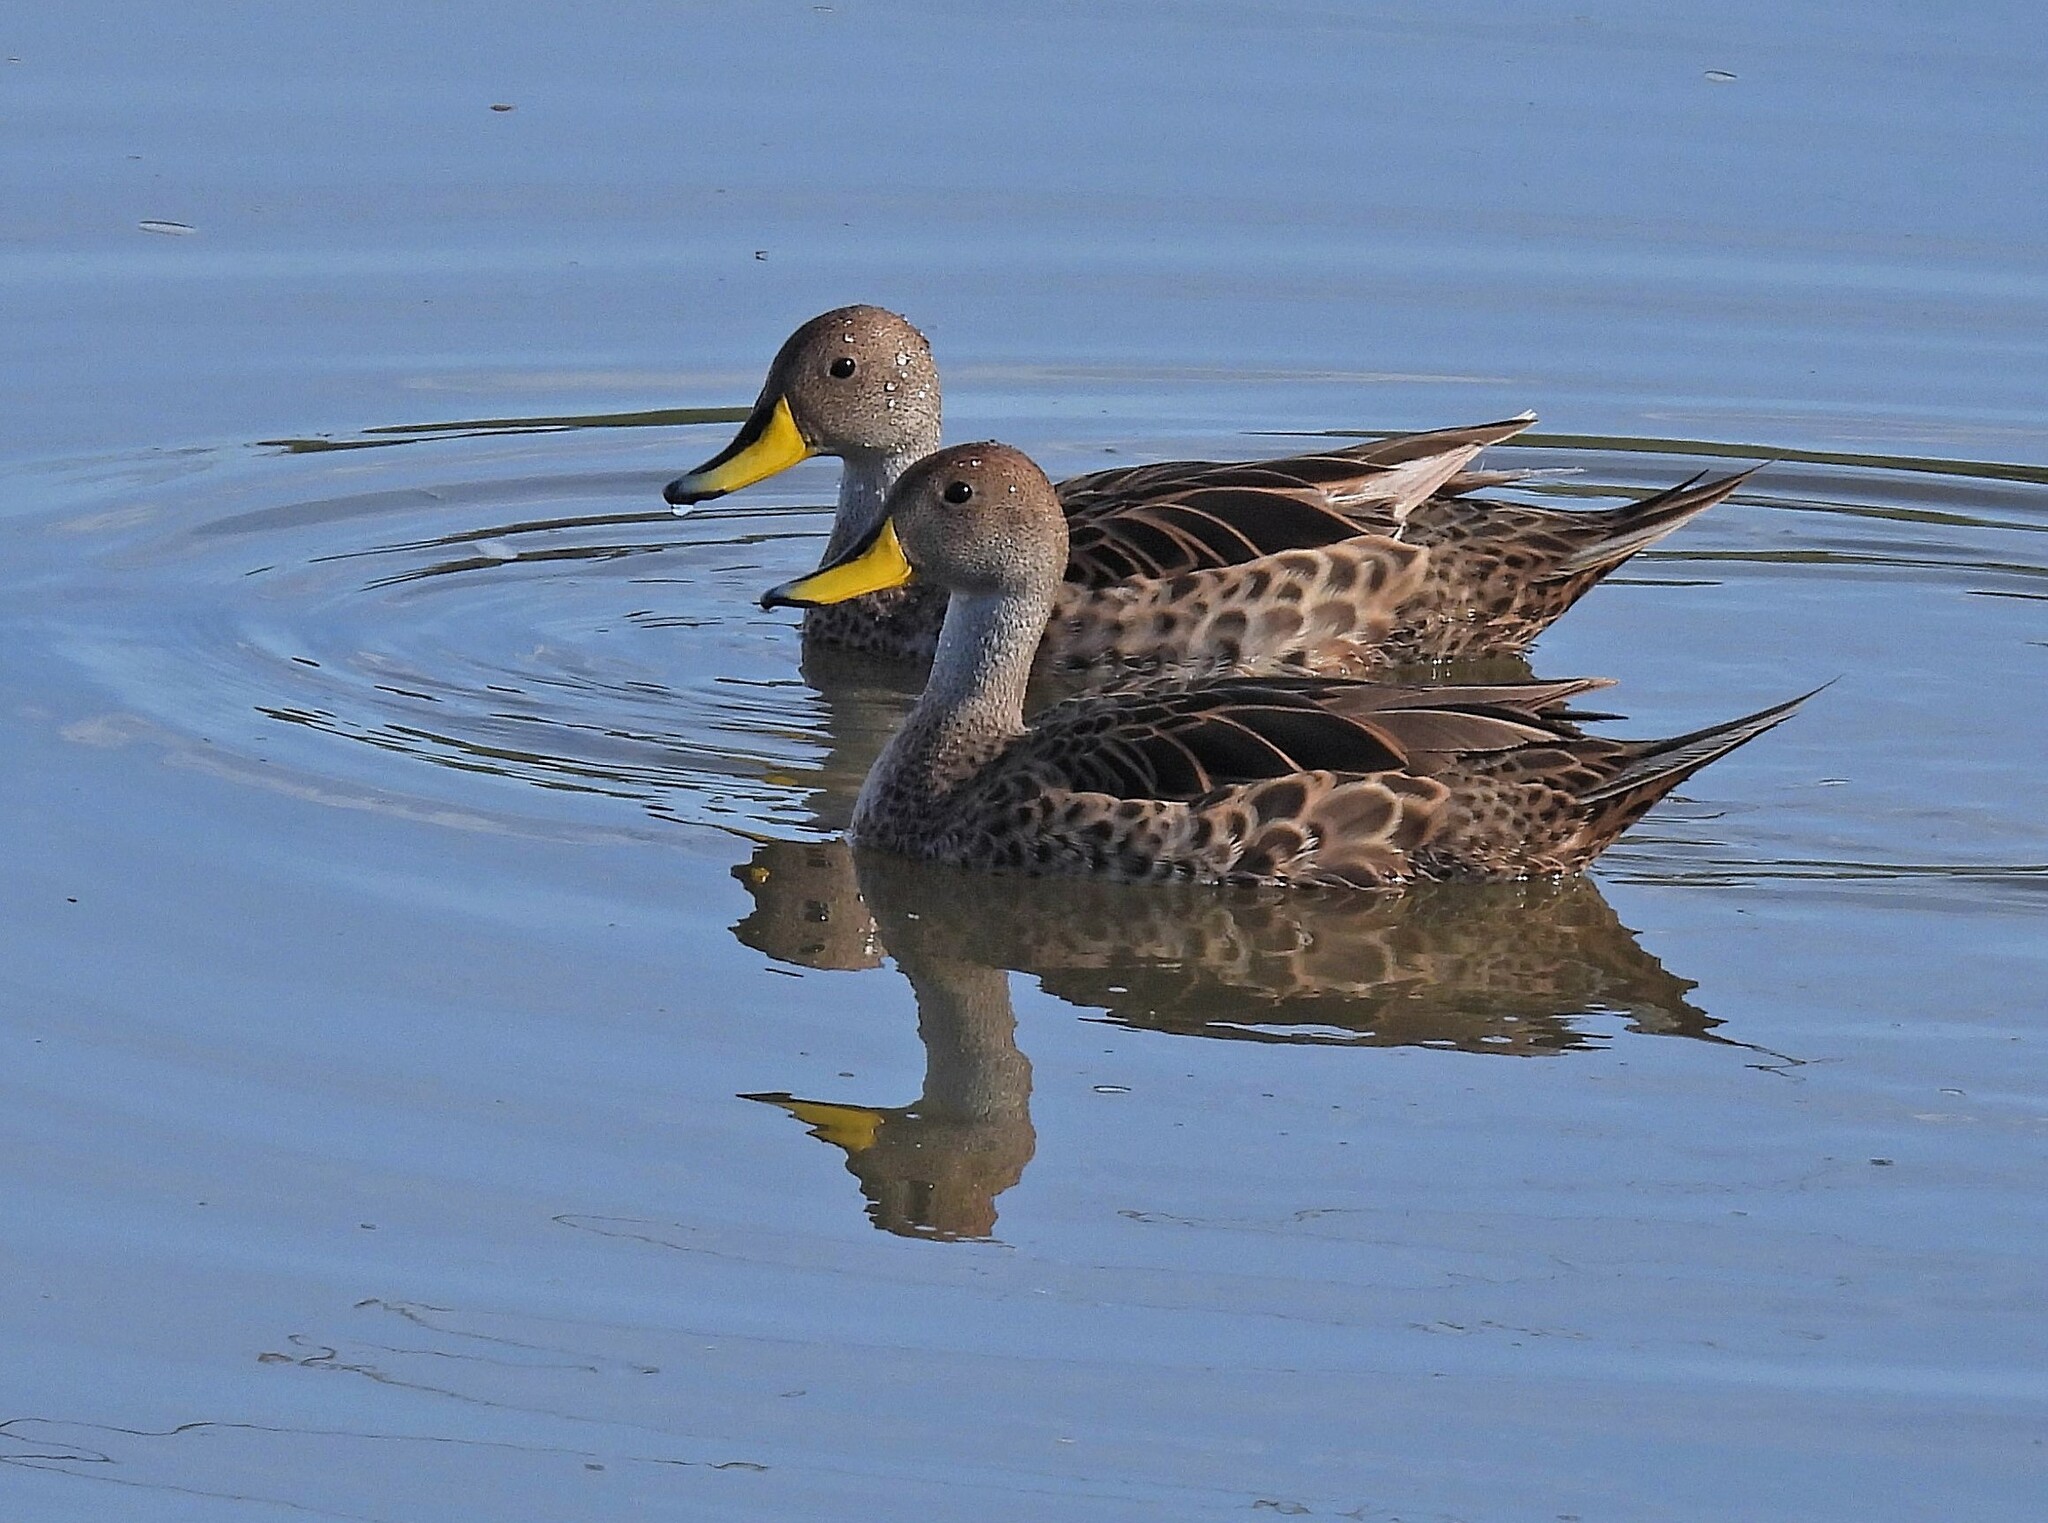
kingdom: Animalia
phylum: Chordata
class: Aves
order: Anseriformes
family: Anatidae
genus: Anas
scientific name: Anas georgica
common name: Yellow-billed pintail
